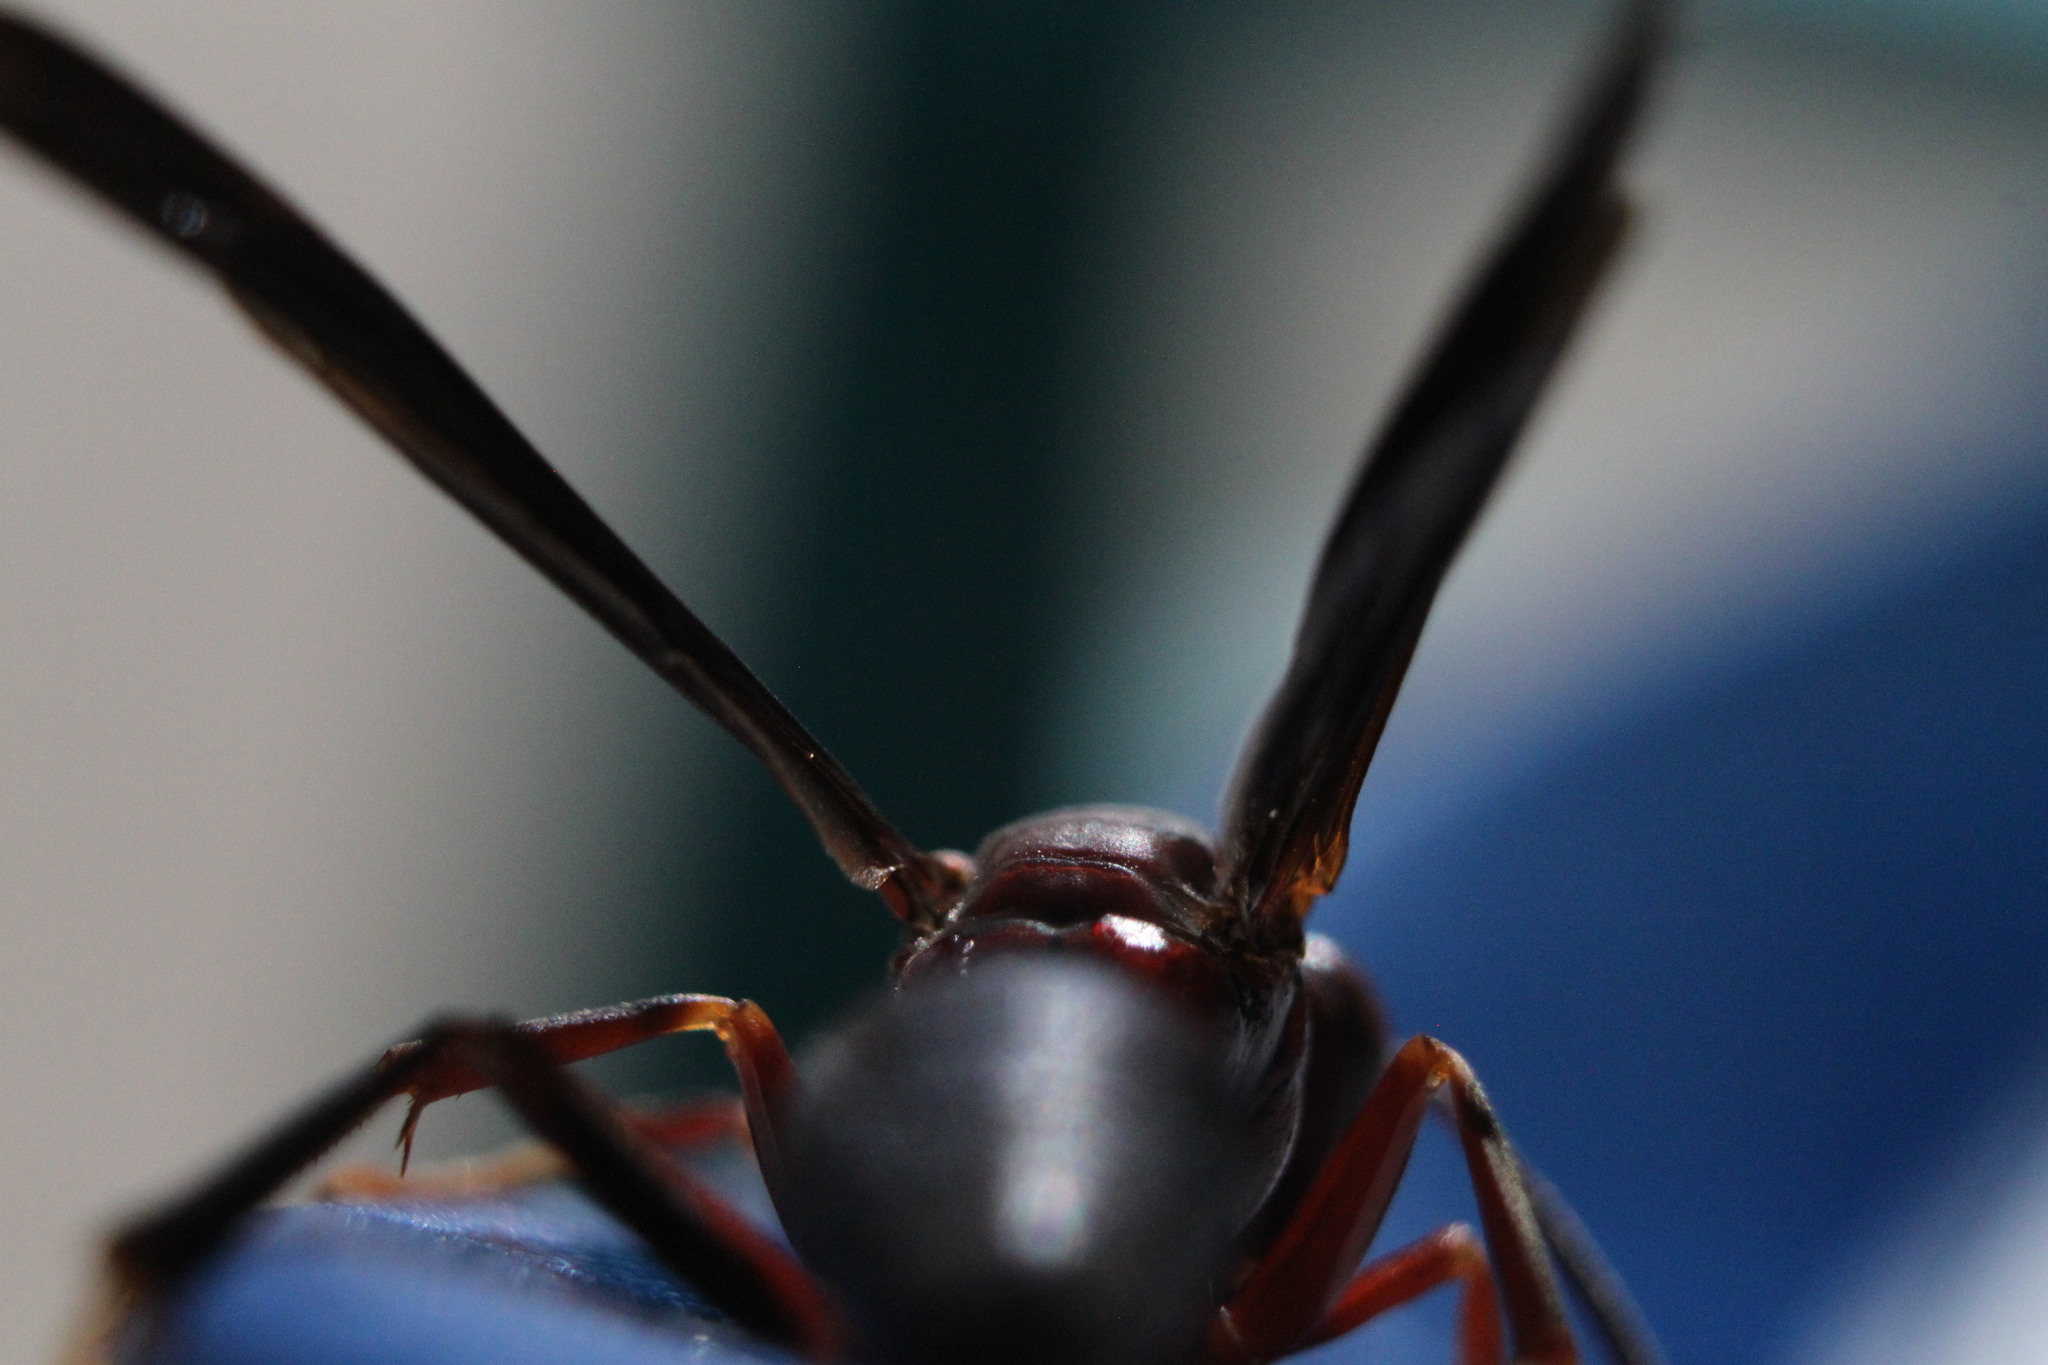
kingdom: Animalia
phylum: Arthropoda
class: Insecta
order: Hymenoptera
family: Eumenidae
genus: Polistes
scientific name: Polistes metricus
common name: Metric paper wasp
